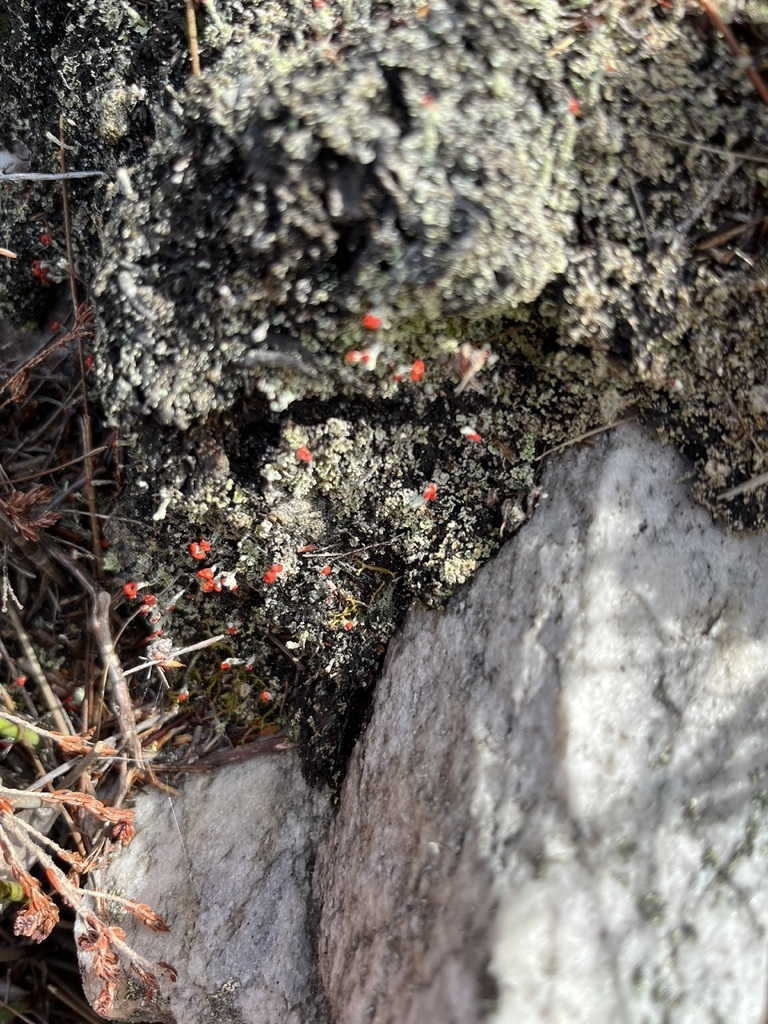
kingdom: Fungi
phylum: Ascomycota
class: Lecanoromycetes
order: Lecanorales
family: Cladoniaceae
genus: Cladonia
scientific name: Cladonia floerkeana
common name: Gritty british soldiers lichen
